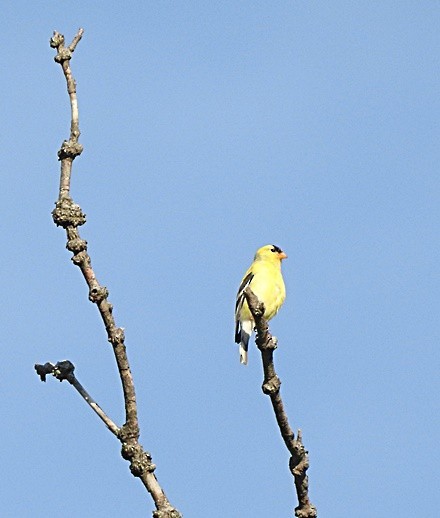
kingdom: Animalia
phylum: Chordata
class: Aves
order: Passeriformes
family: Fringillidae
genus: Spinus
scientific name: Spinus tristis
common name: American goldfinch
